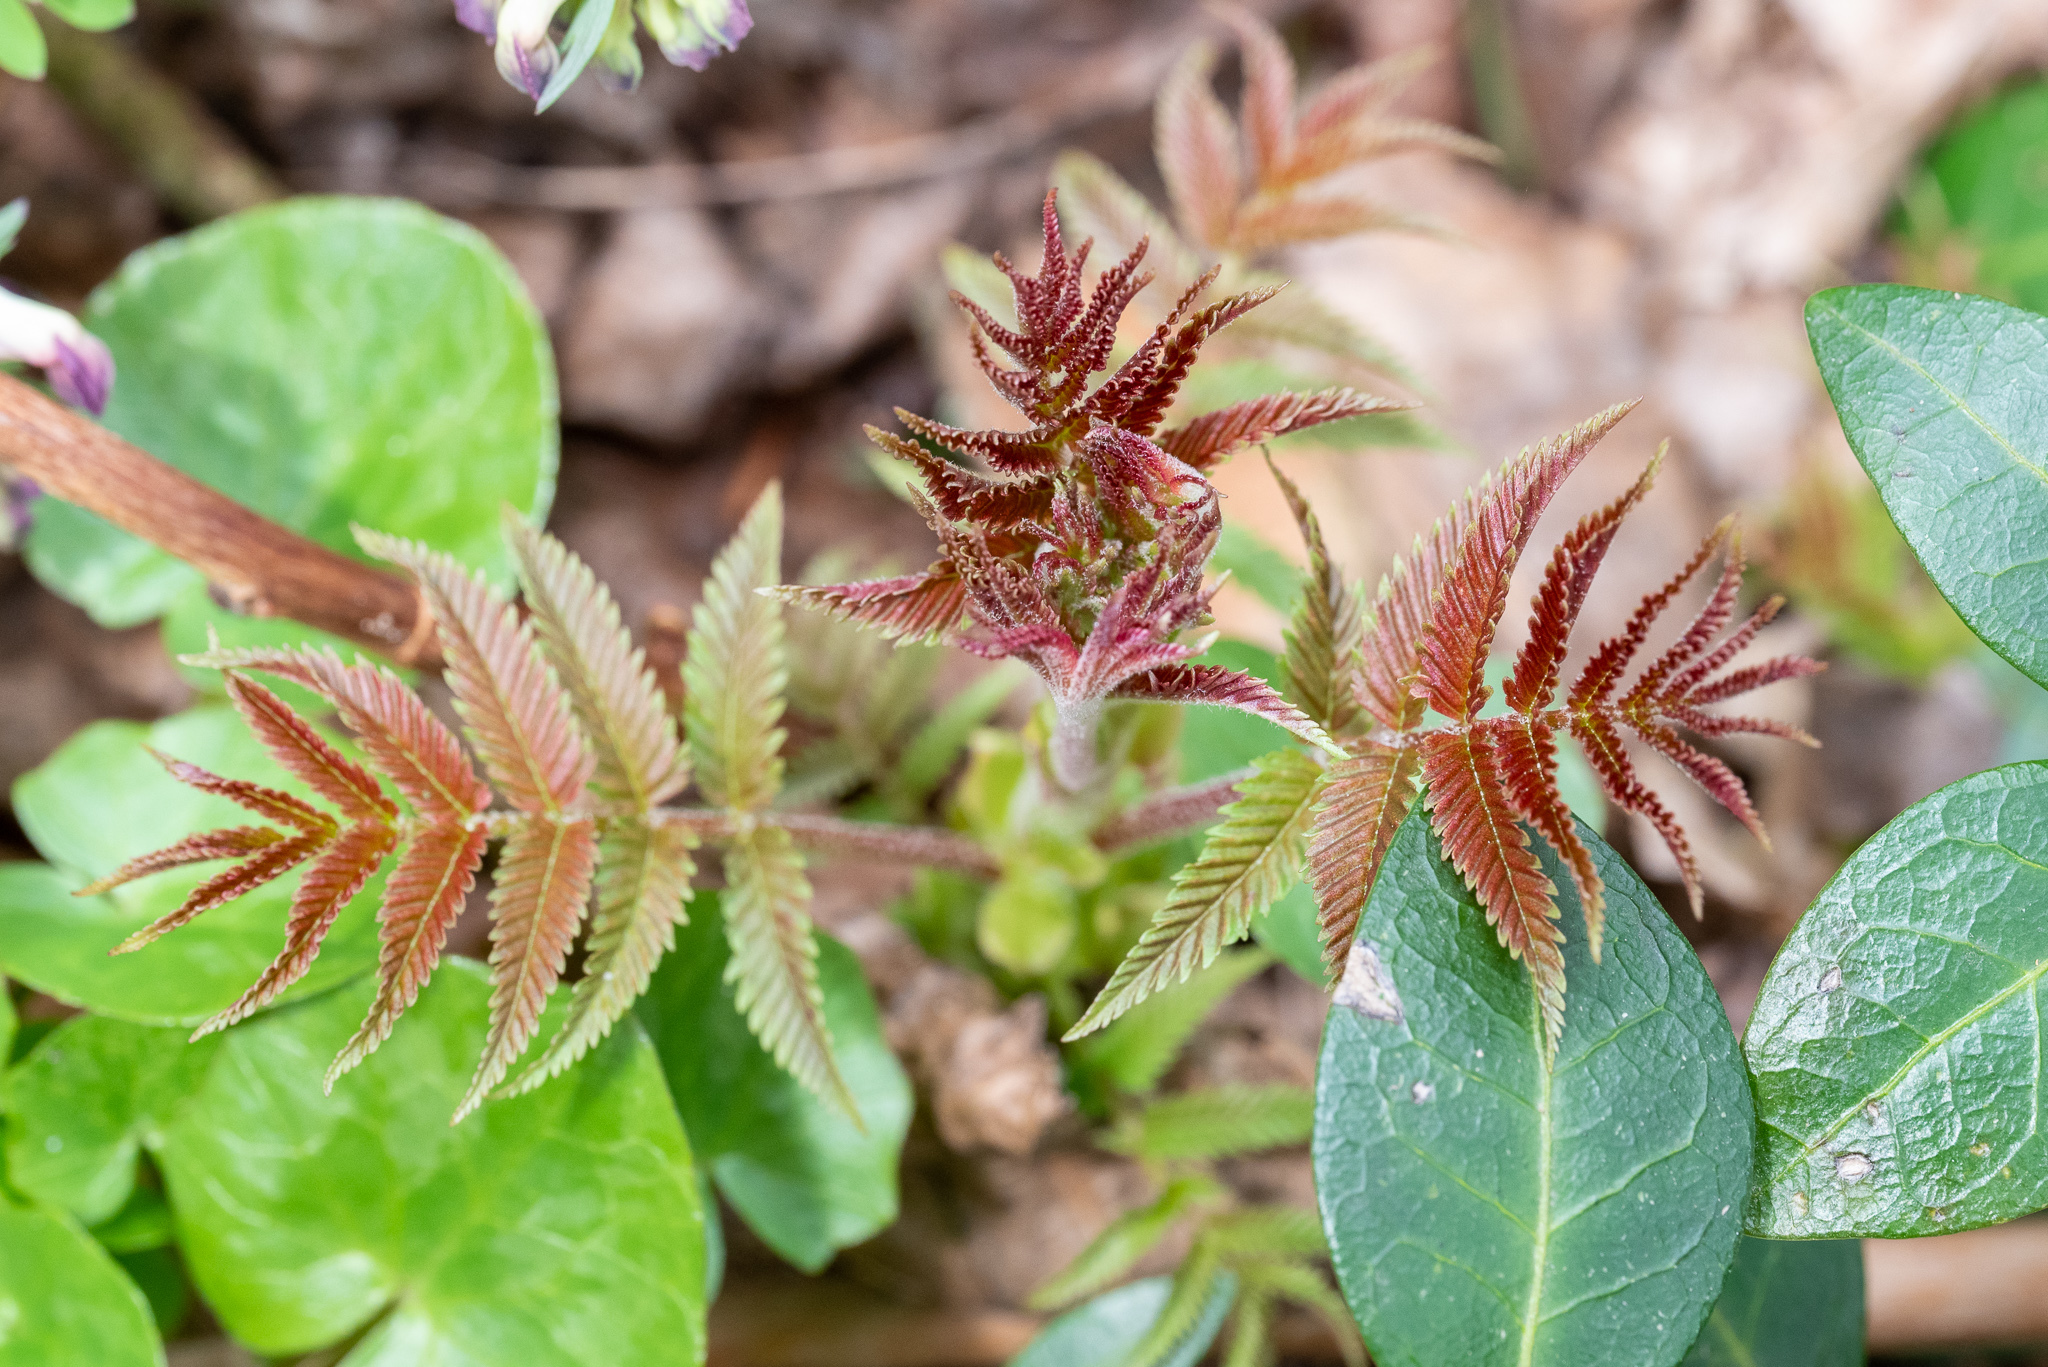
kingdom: Plantae
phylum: Tracheophyta
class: Magnoliopsida
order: Rosales
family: Rosaceae
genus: Sorbaria
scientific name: Sorbaria sorbifolia
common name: False spiraea
